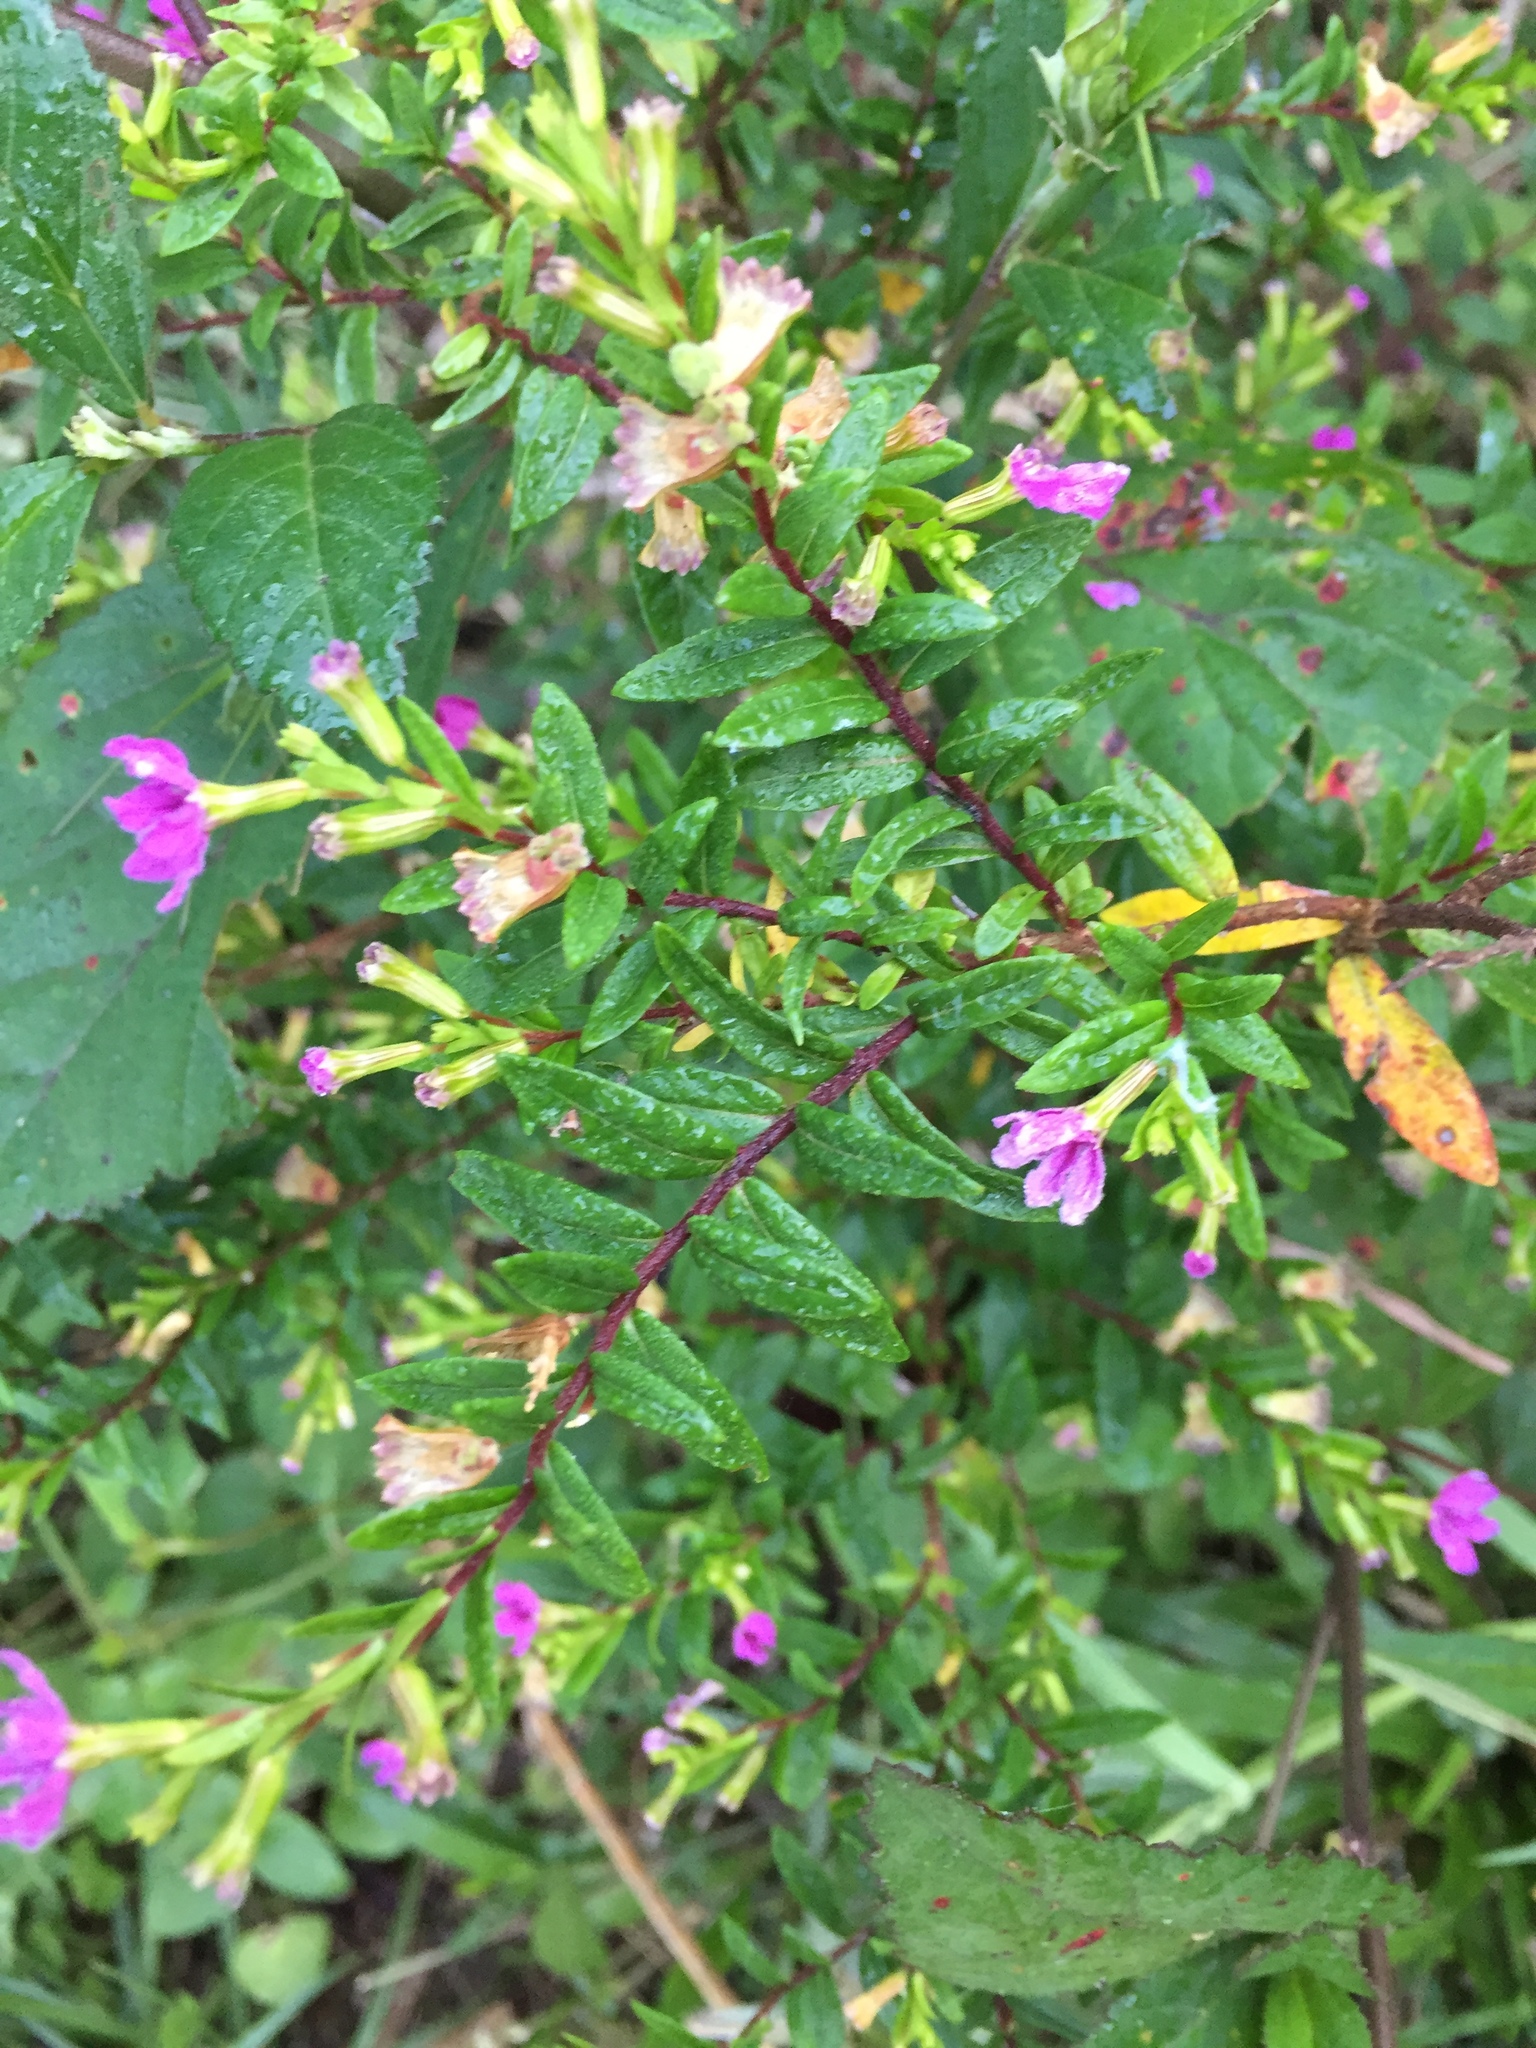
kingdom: Plantae
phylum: Tracheophyta
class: Magnoliopsida
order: Myrtales
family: Lythraceae
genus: Cuphea
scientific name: Cuphea hyssopifolia
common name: False heather
